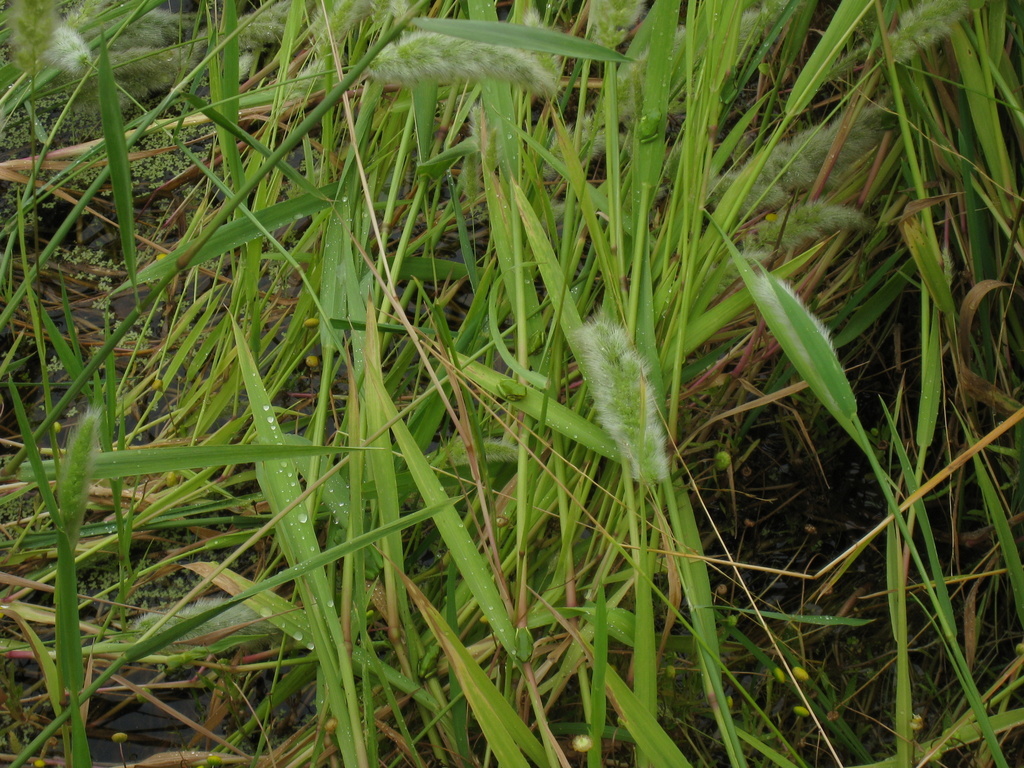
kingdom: Animalia
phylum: Chordata
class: Amphibia
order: Anura
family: Hylidae
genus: Hyla
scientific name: Hyla sarda
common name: Sardinian tree frog
